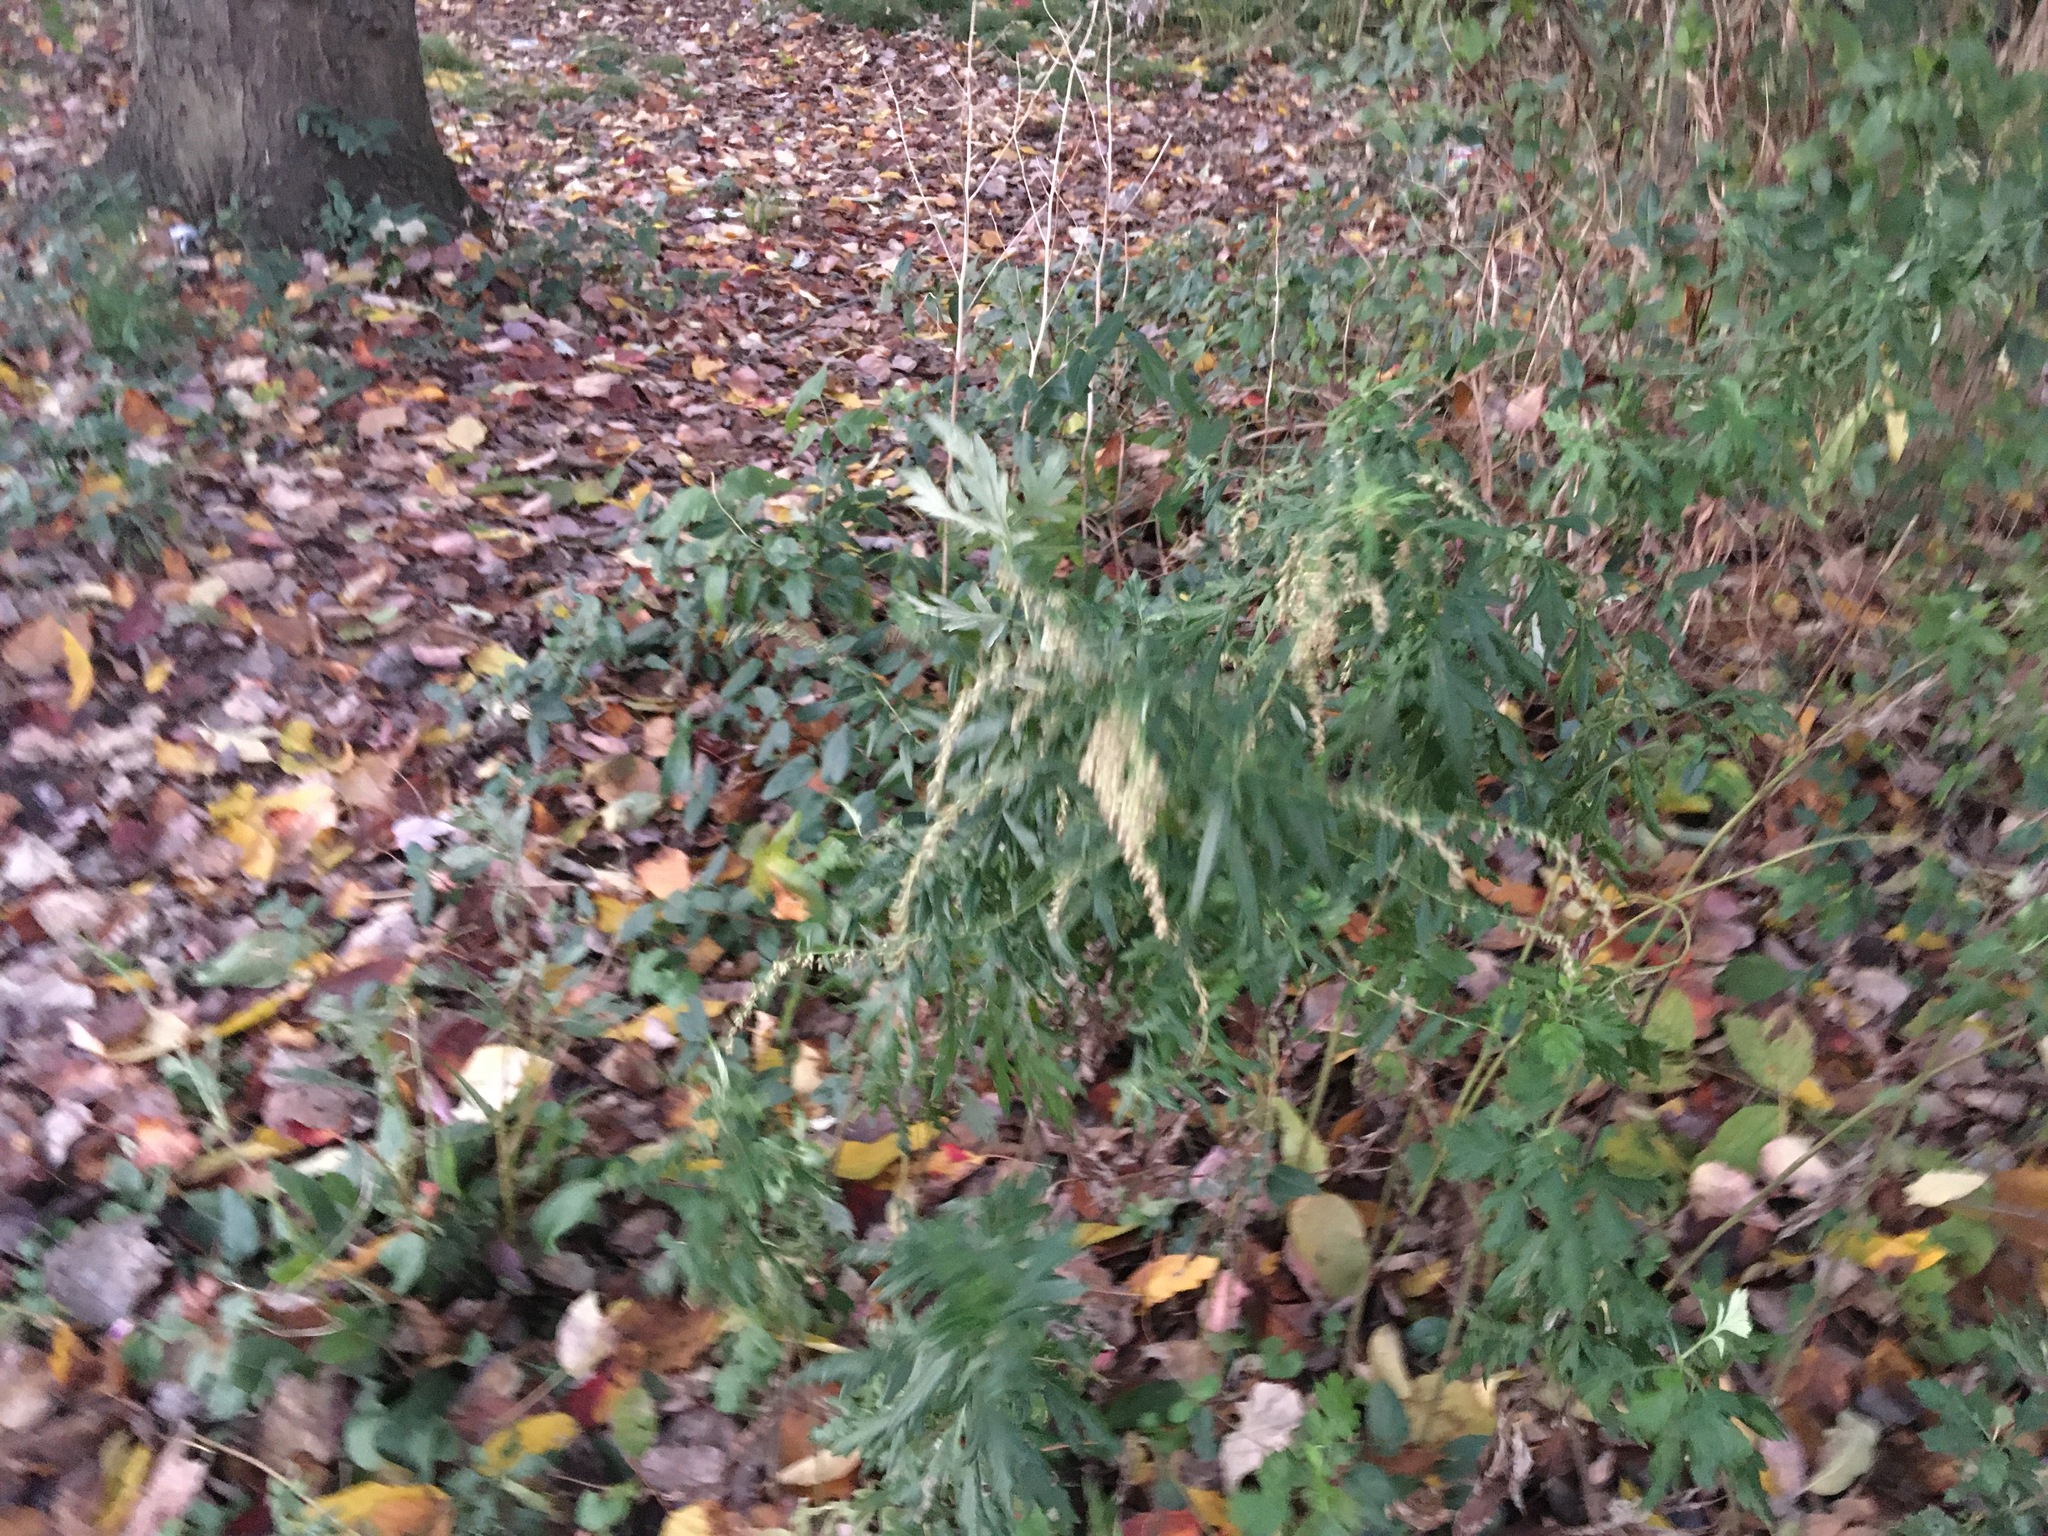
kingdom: Plantae
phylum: Tracheophyta
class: Magnoliopsida
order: Asterales
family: Asteraceae
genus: Artemisia
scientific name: Artemisia vulgaris
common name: Mugwort
